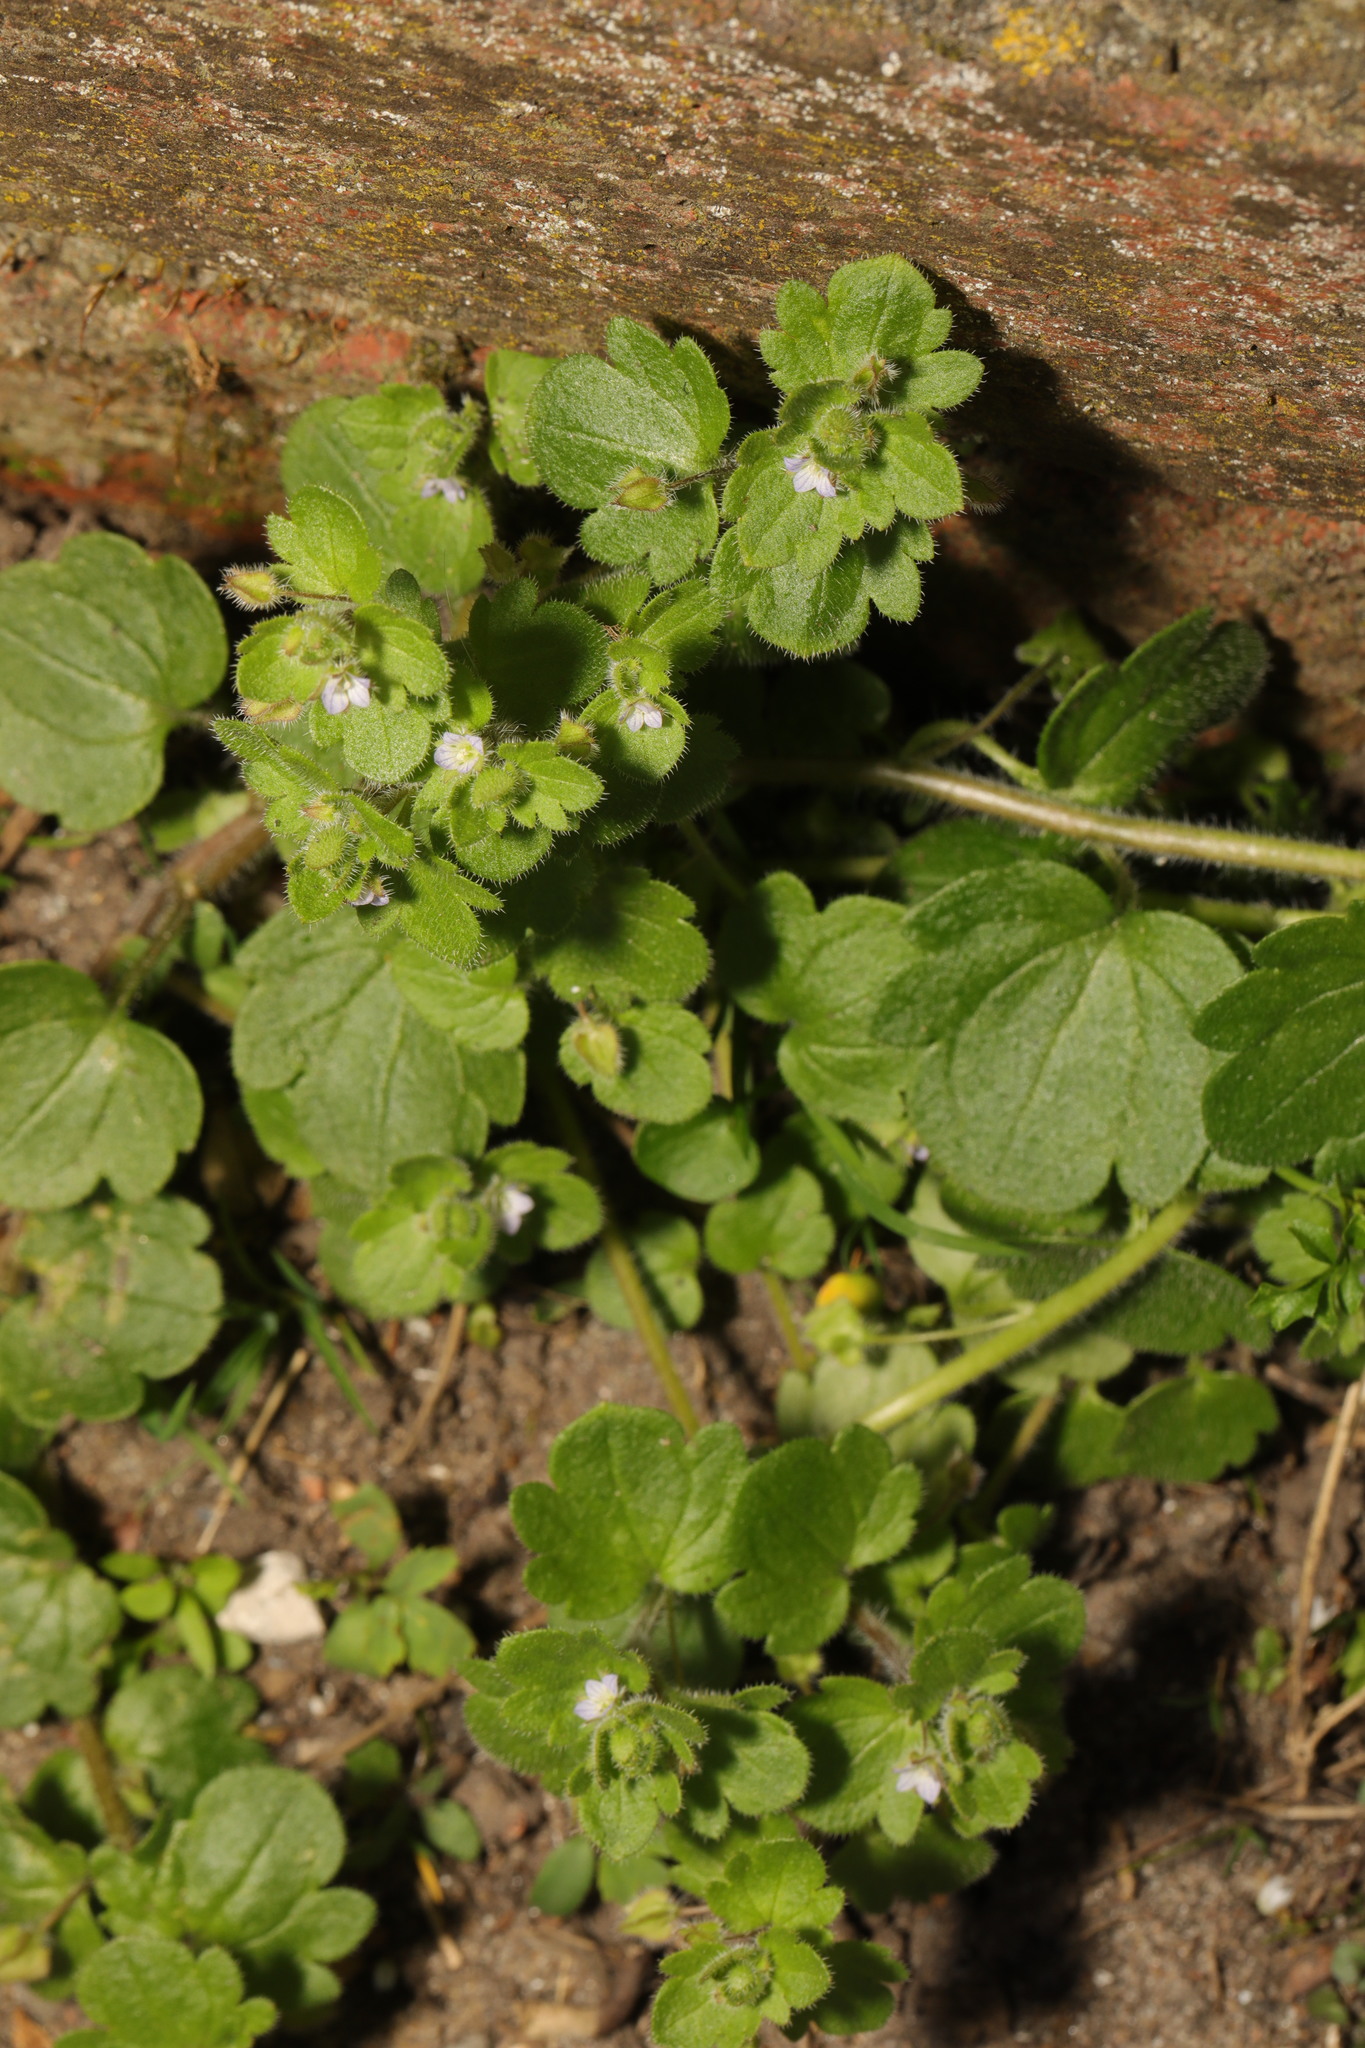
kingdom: Plantae
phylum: Tracheophyta
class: Magnoliopsida
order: Lamiales
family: Plantaginaceae
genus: Veronica
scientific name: Veronica hederifolia
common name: Ivy-leaved speedwell
